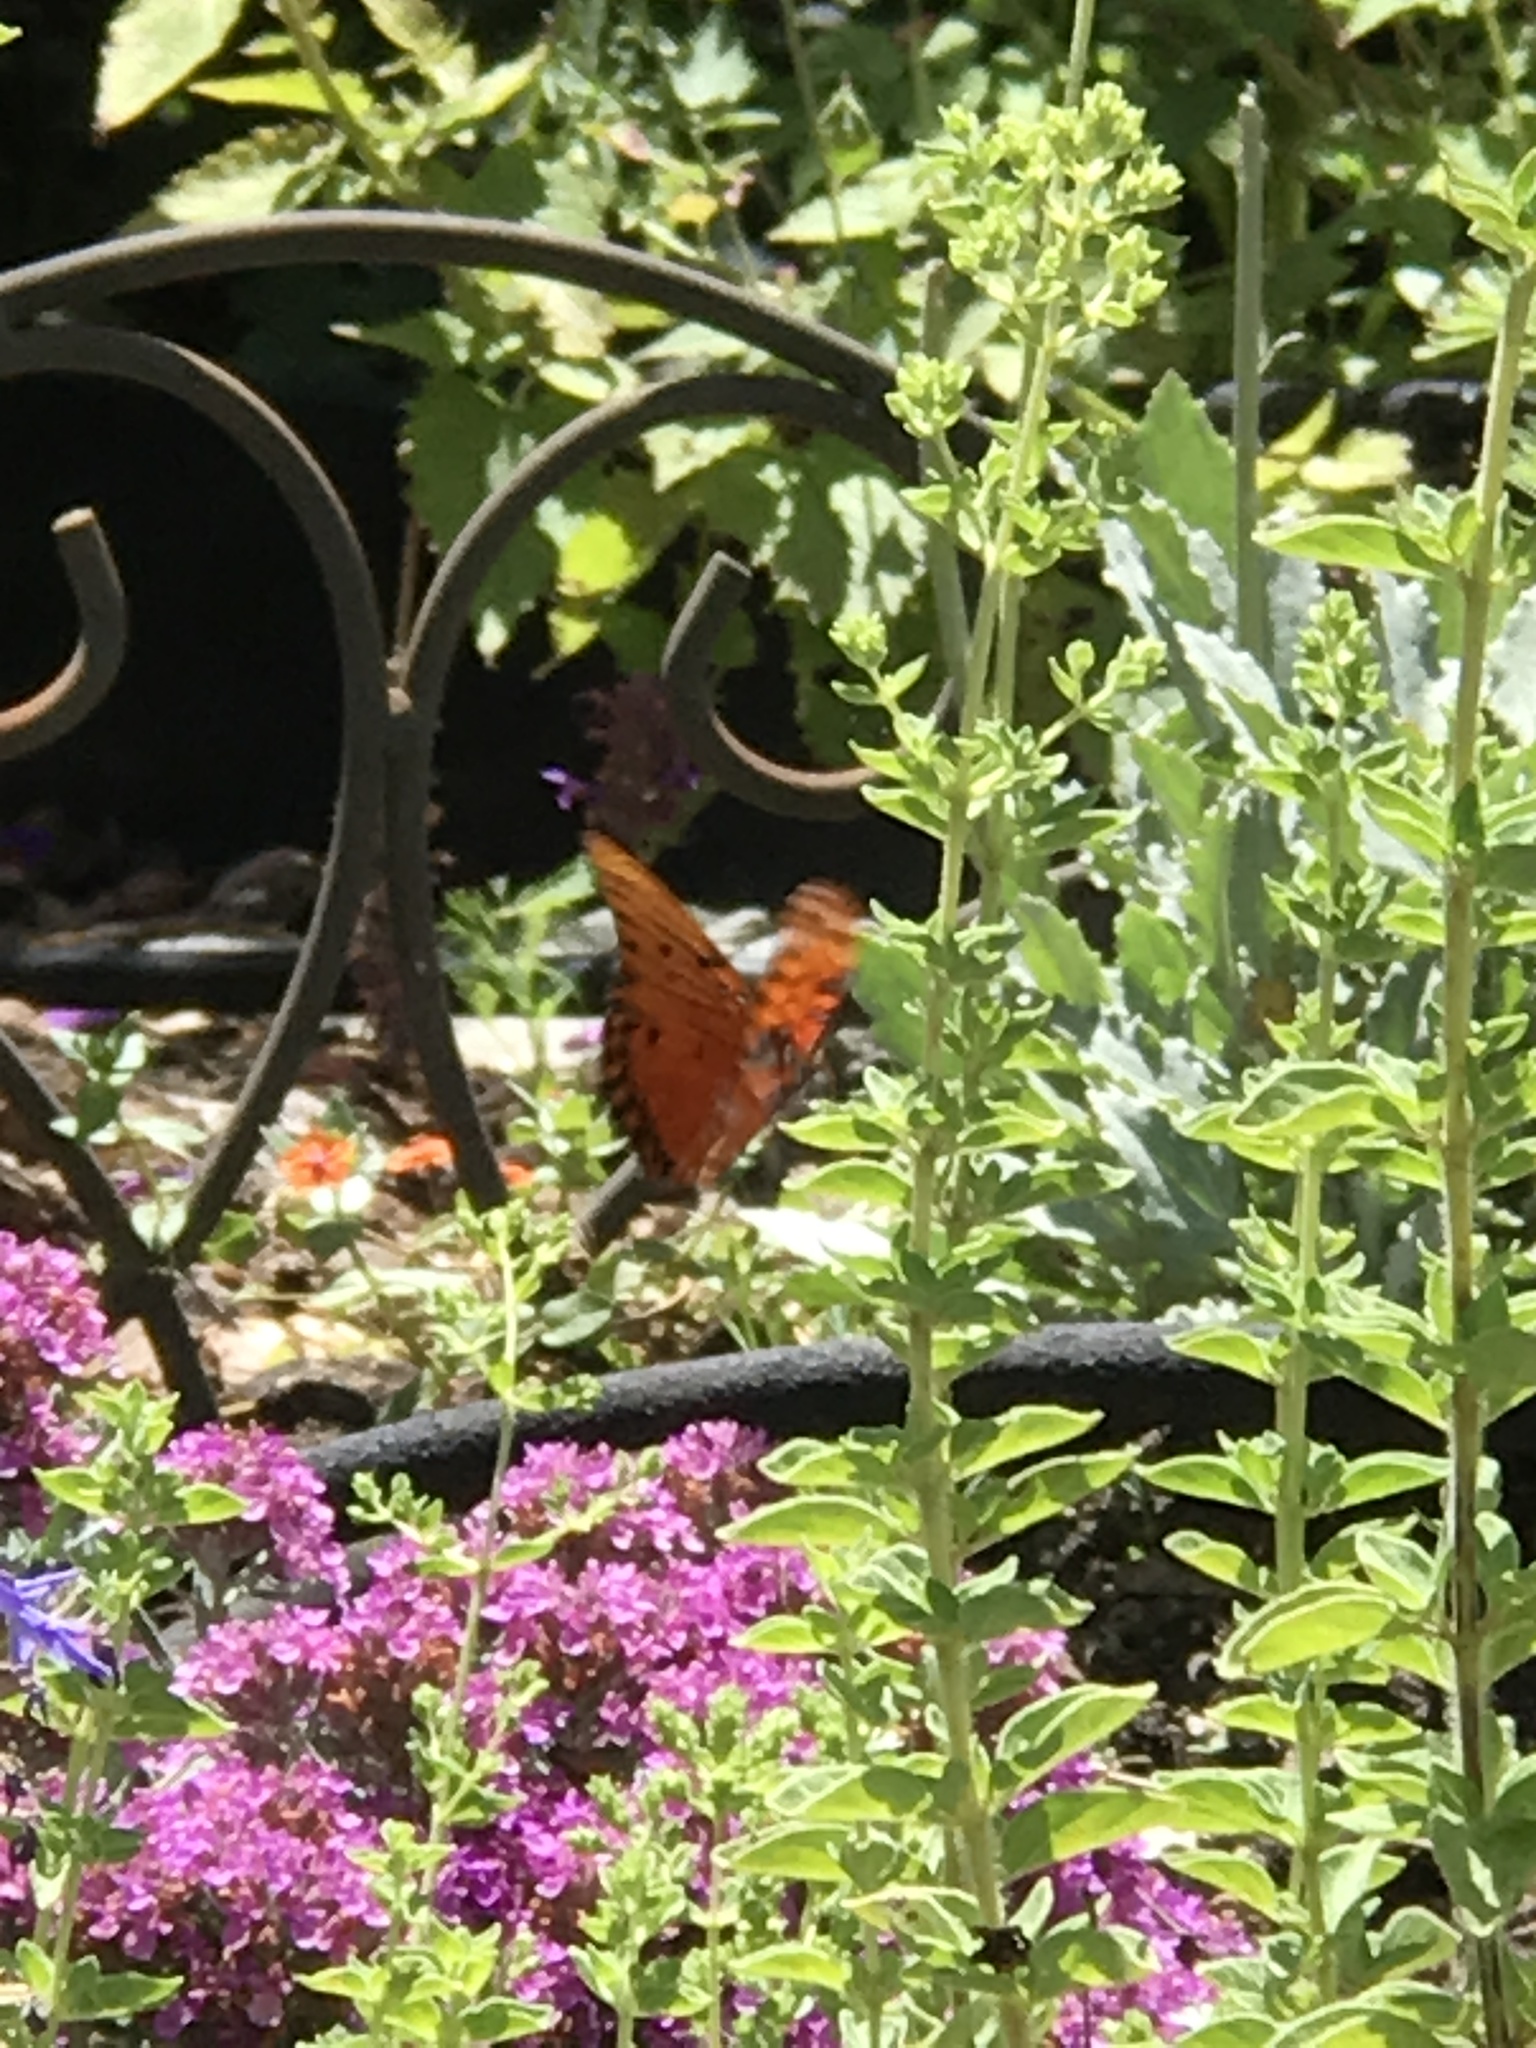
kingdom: Animalia
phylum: Arthropoda
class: Insecta
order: Lepidoptera
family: Nymphalidae
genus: Dione
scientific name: Dione vanillae
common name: Gulf fritillary
